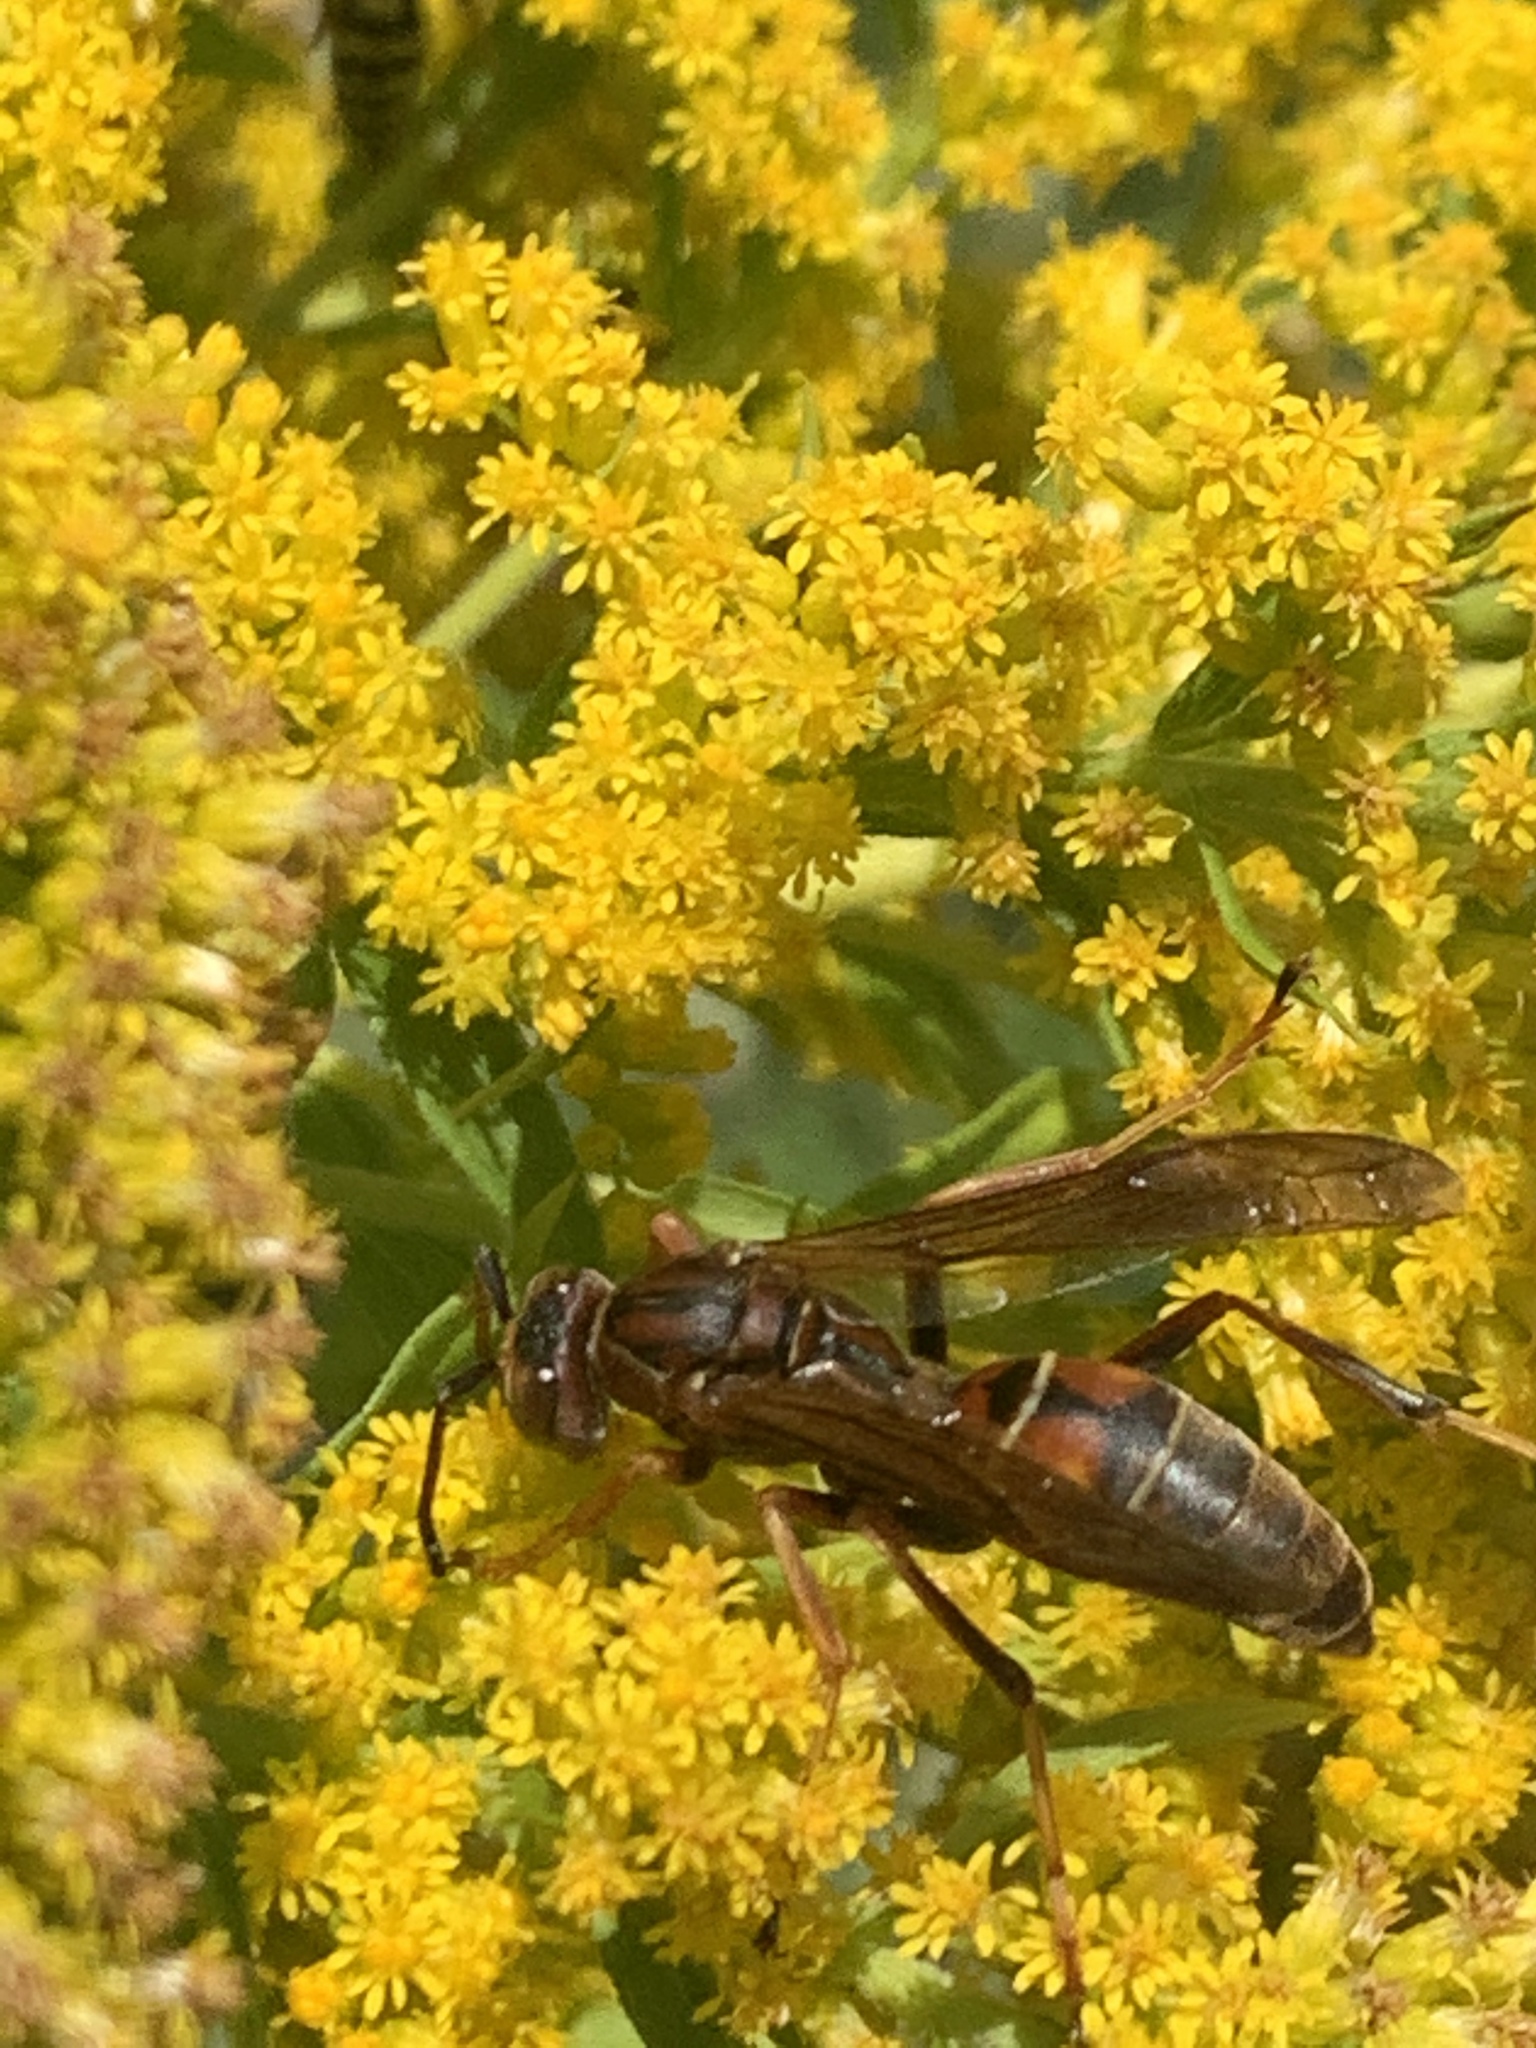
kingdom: Animalia
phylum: Arthropoda
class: Insecta
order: Hymenoptera
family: Eumenidae
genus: Polistes
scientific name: Polistes fuscatus
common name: Dark paper wasp
